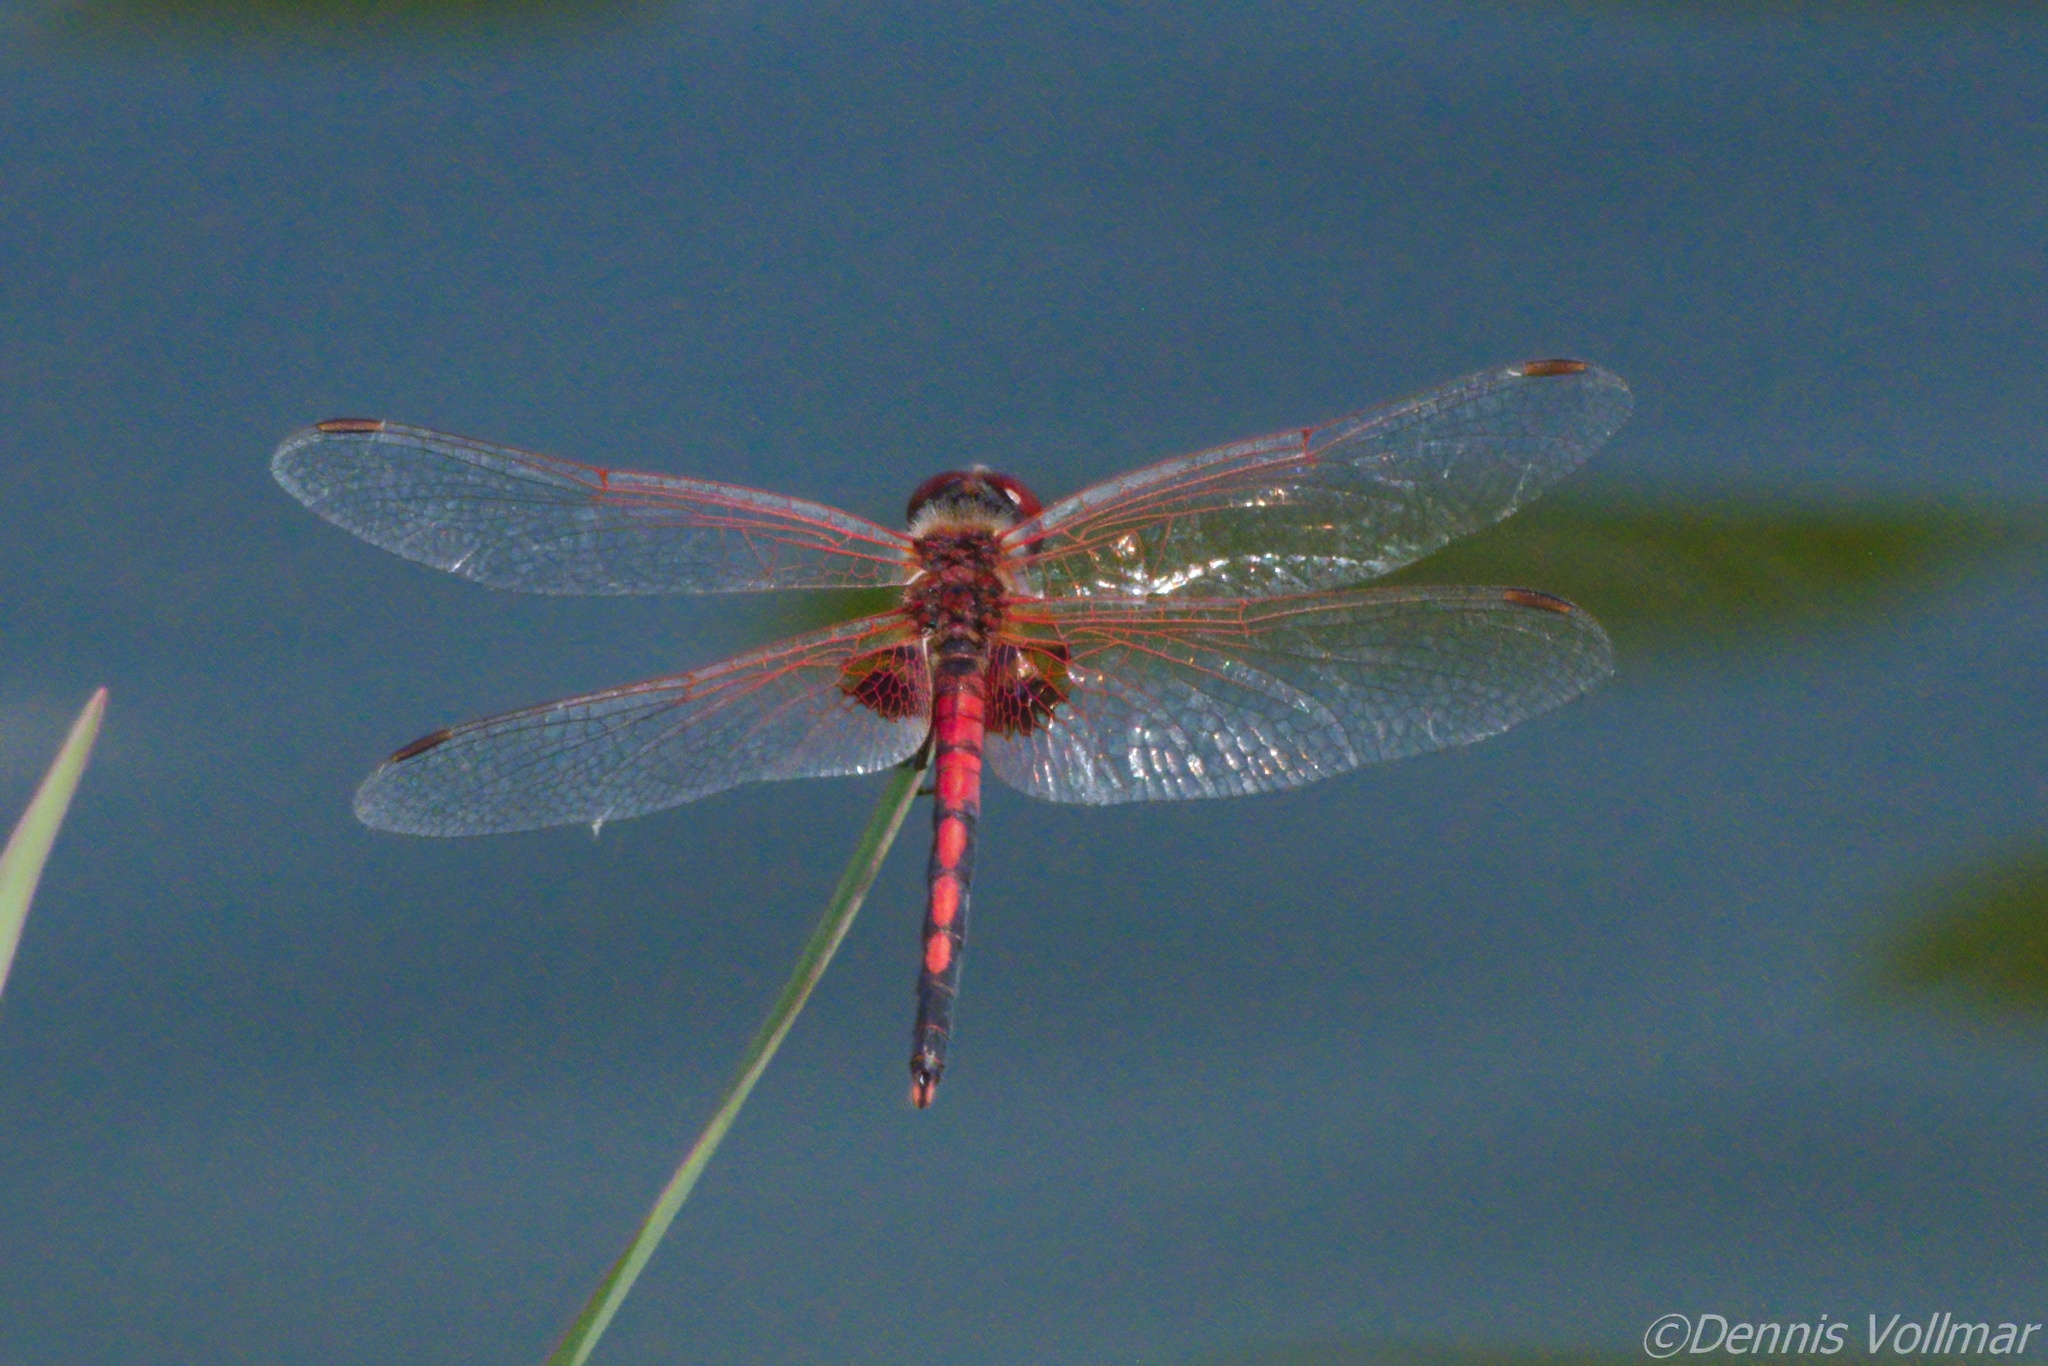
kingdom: Animalia
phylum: Arthropoda
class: Insecta
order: Odonata
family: Libellulidae
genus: Celithemis
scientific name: Celithemis bertha
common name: Red-veined pennant
